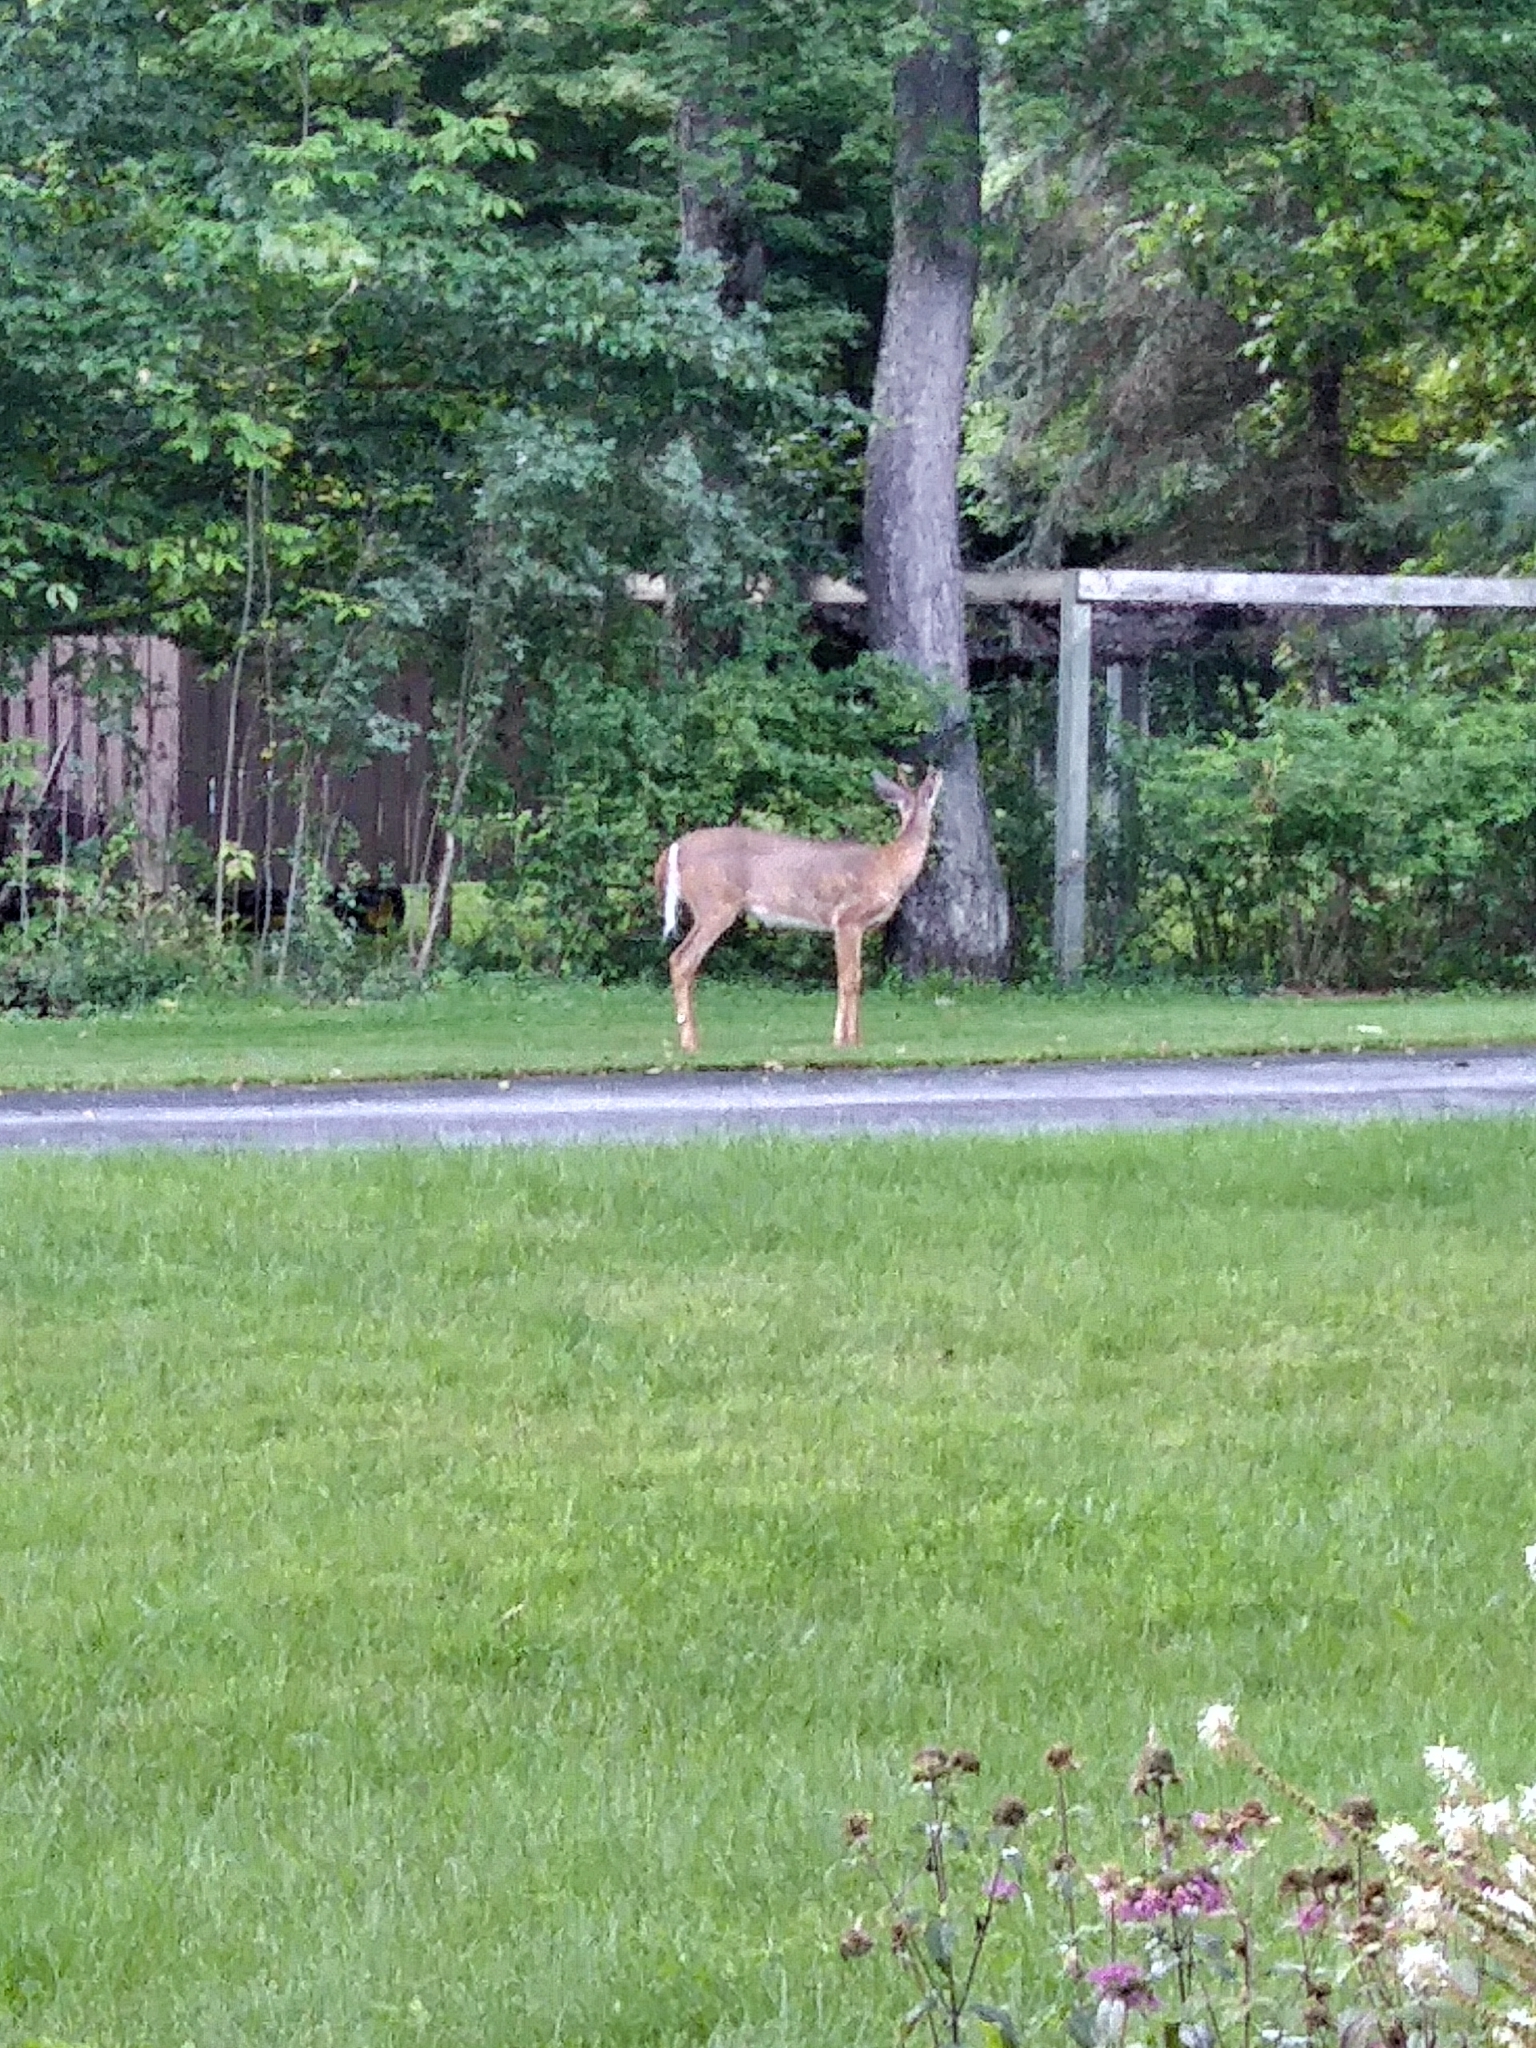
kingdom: Animalia
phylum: Chordata
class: Mammalia
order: Artiodactyla
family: Cervidae
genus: Odocoileus
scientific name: Odocoileus virginianus
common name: White-tailed deer
